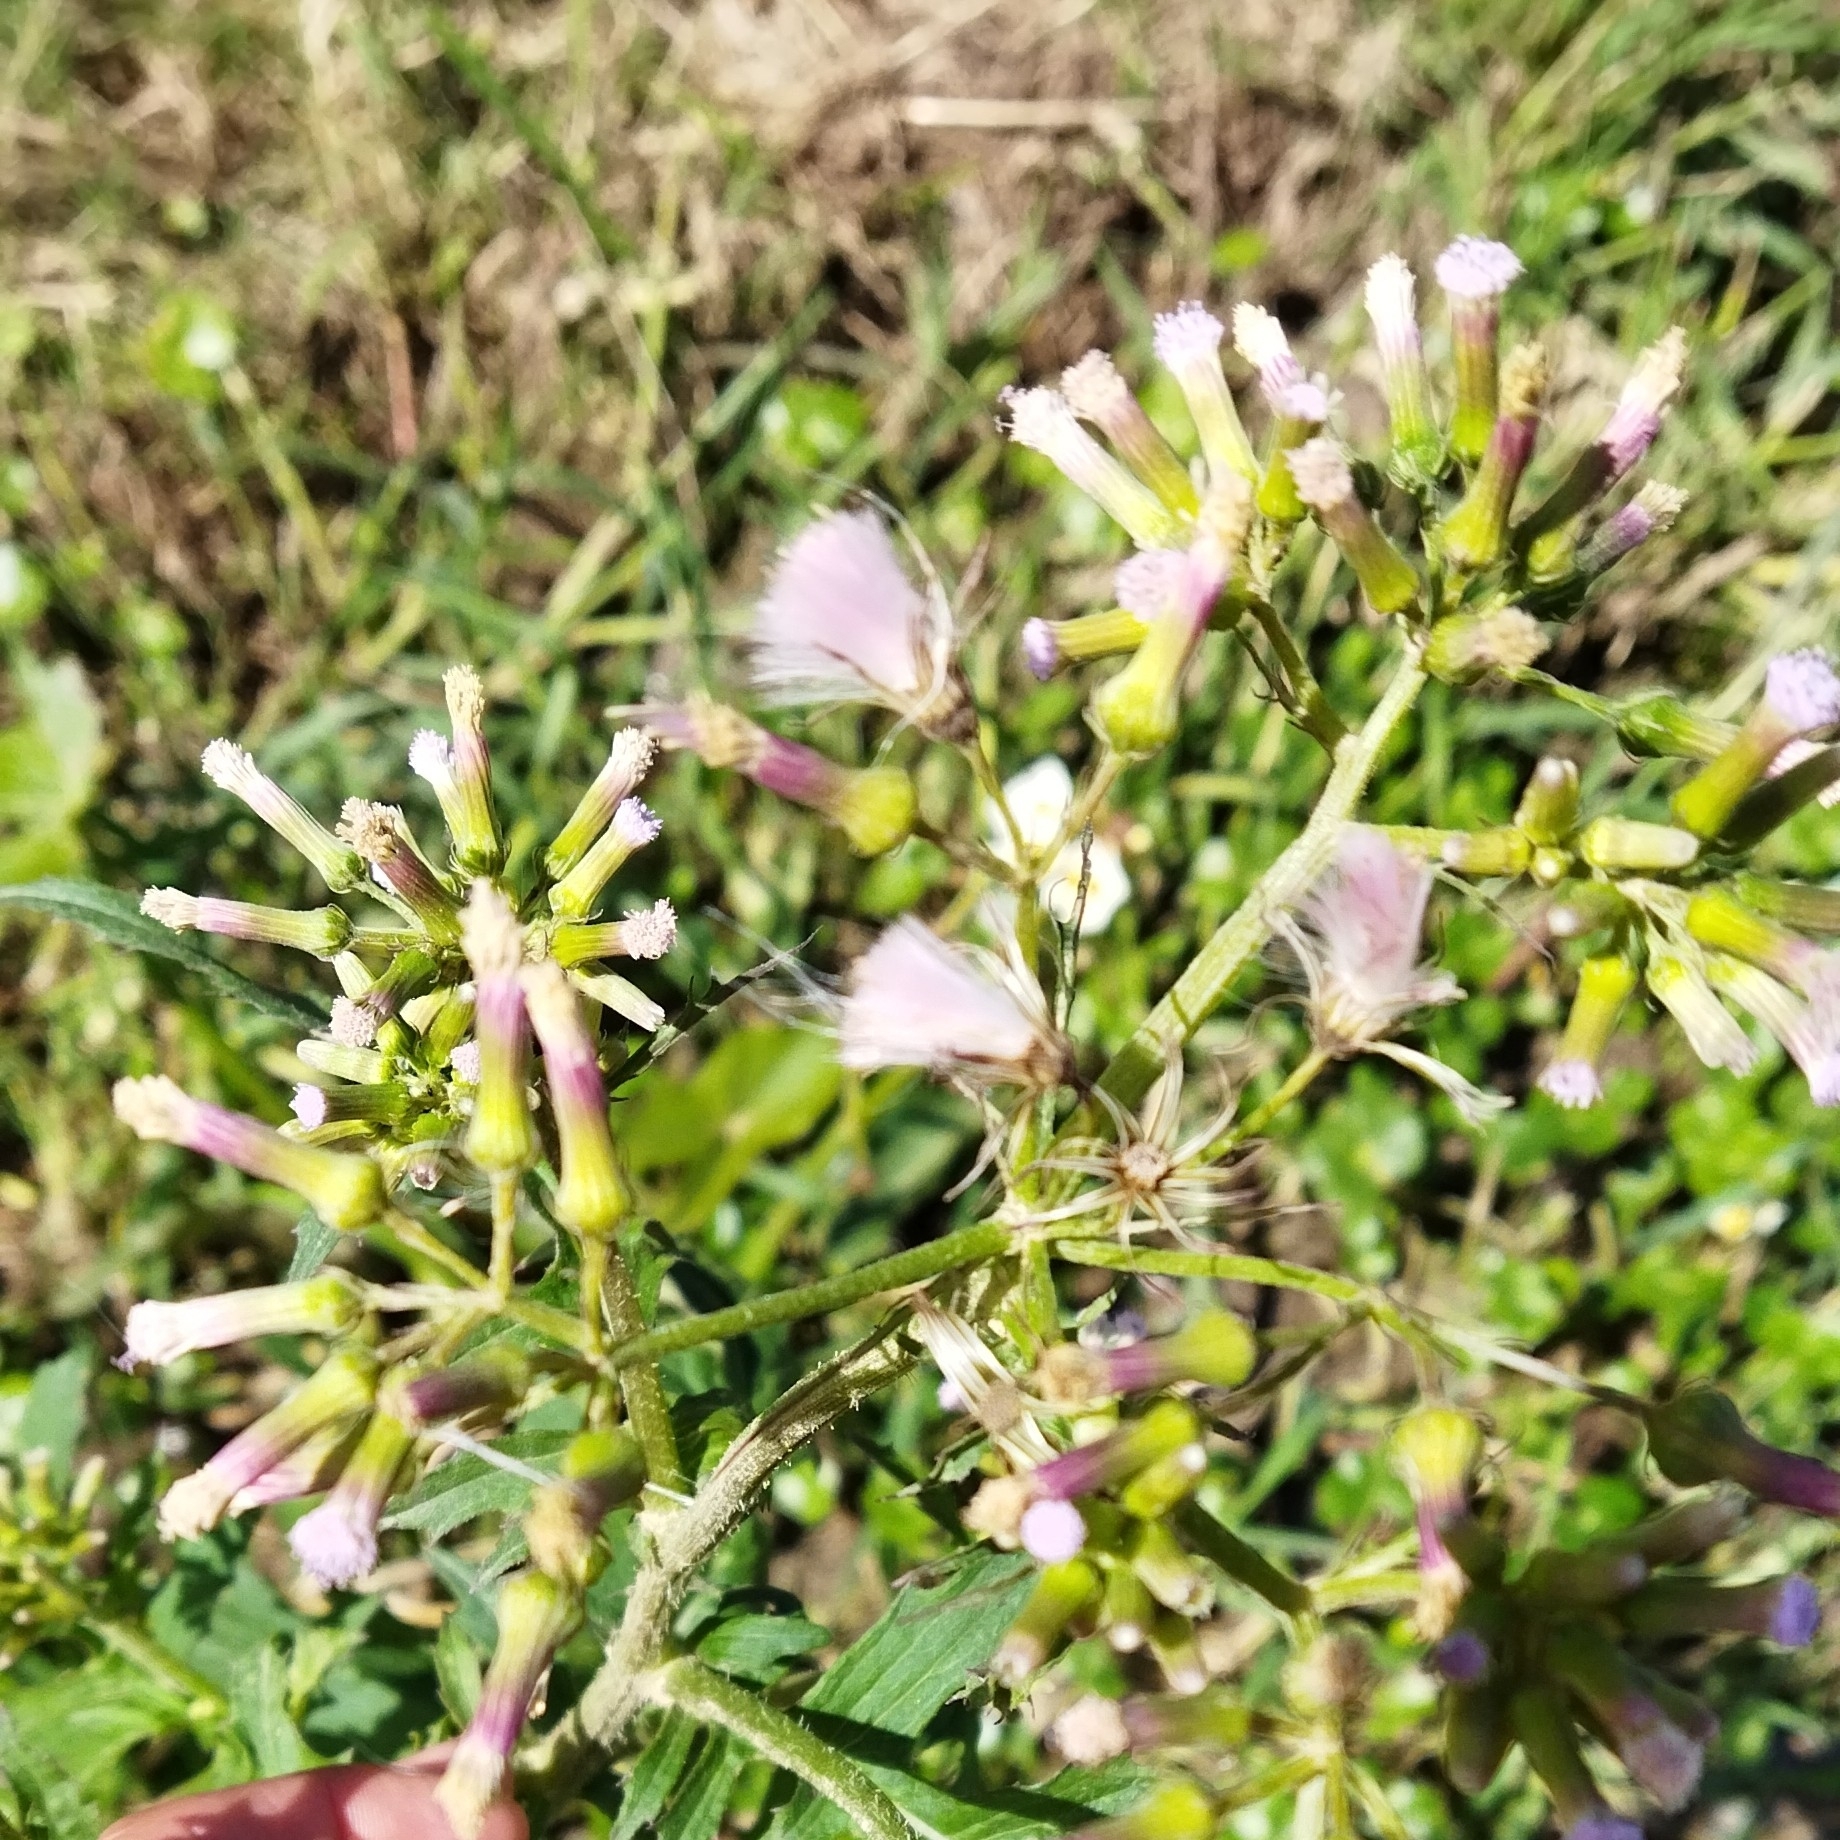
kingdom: Plantae
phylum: Tracheophyta
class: Magnoliopsida
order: Asterales
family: Asteraceae
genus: Erechtites
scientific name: Erechtites valerianifolius
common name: Tropical burnweed
